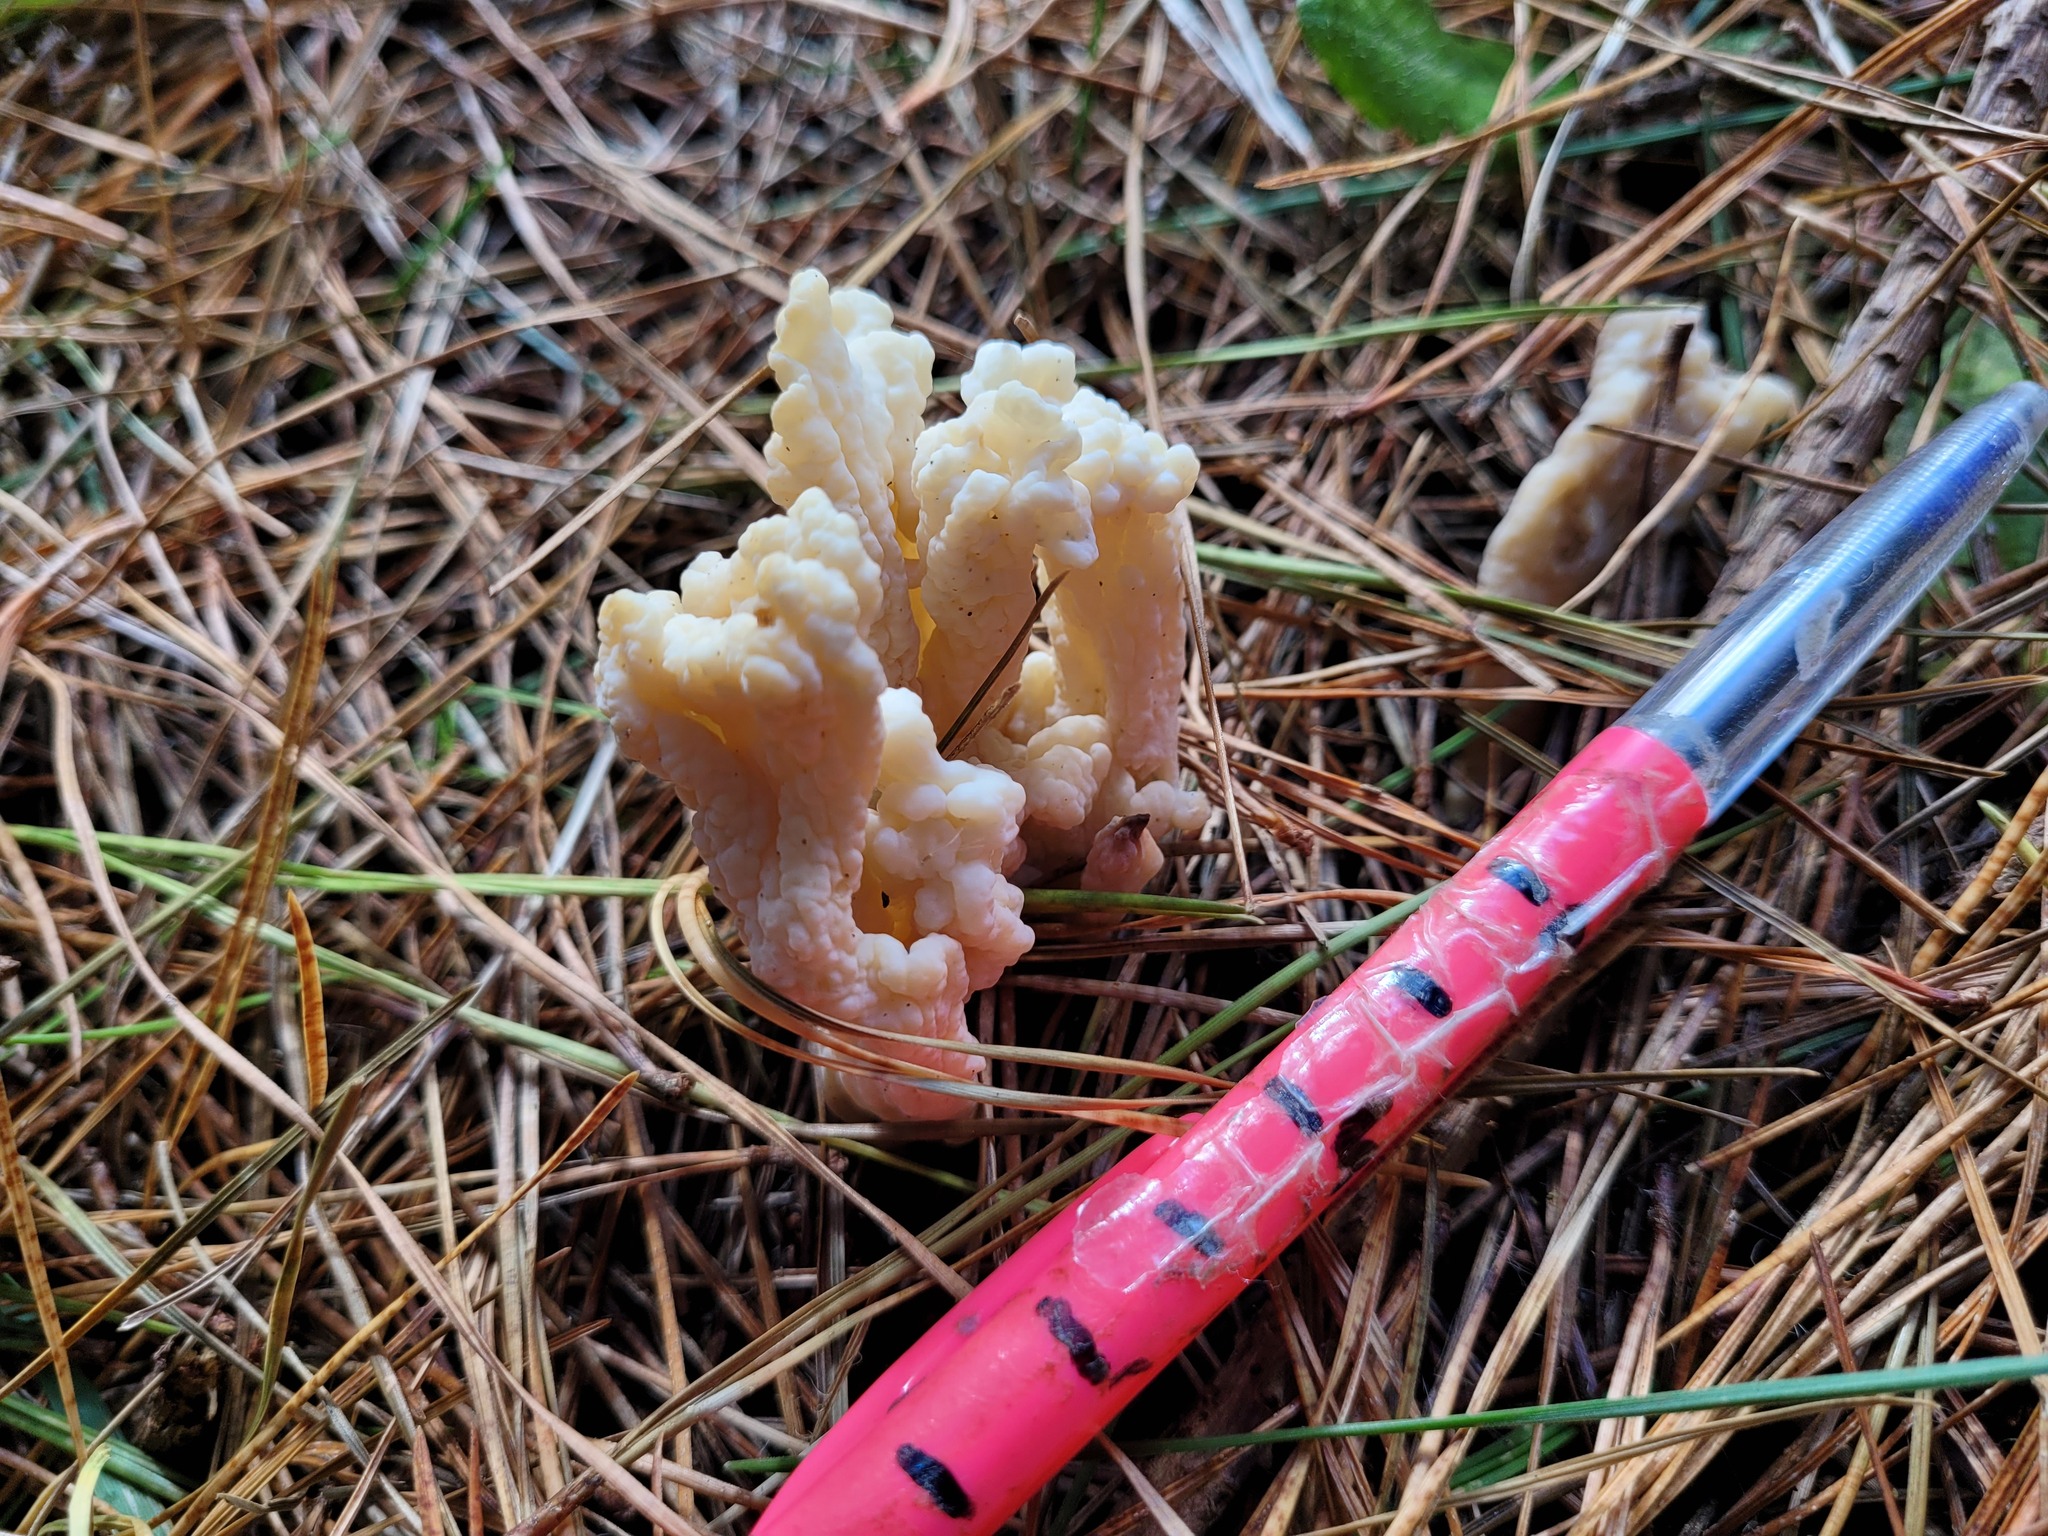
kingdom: Fungi
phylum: Basidiomycota
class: Agaricomycetes
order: Cantharellales
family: Hydnaceae
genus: Clavulina
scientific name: Clavulina rugosa
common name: Wrinkled club
